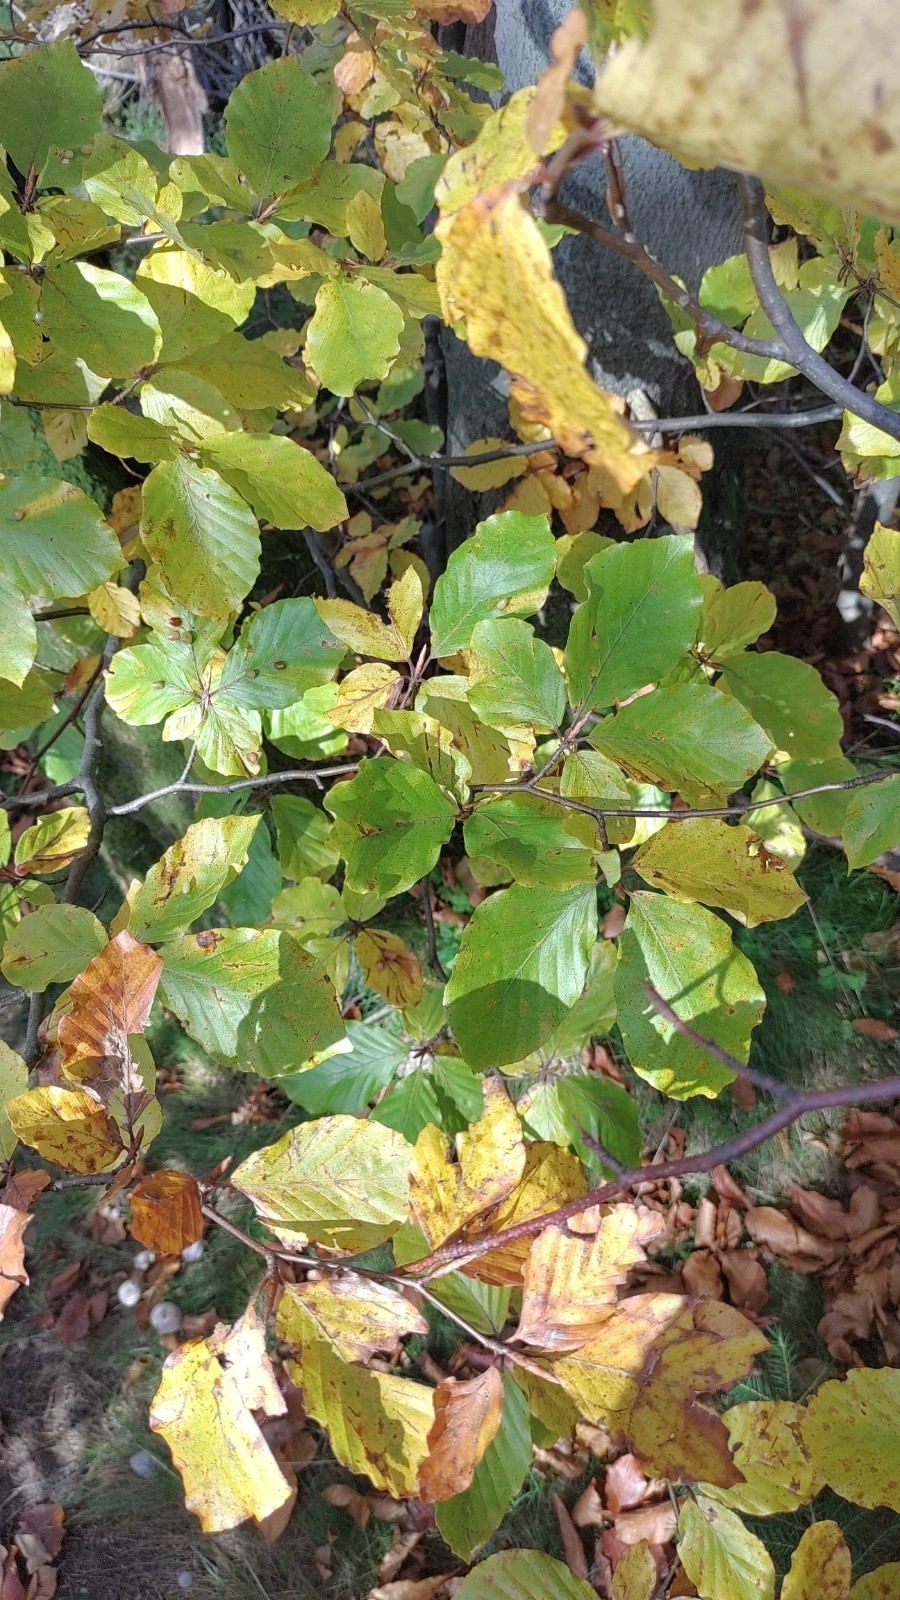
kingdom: Plantae
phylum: Tracheophyta
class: Magnoliopsida
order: Fagales
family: Fagaceae
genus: Fagus
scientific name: Fagus sylvatica
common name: Beech
